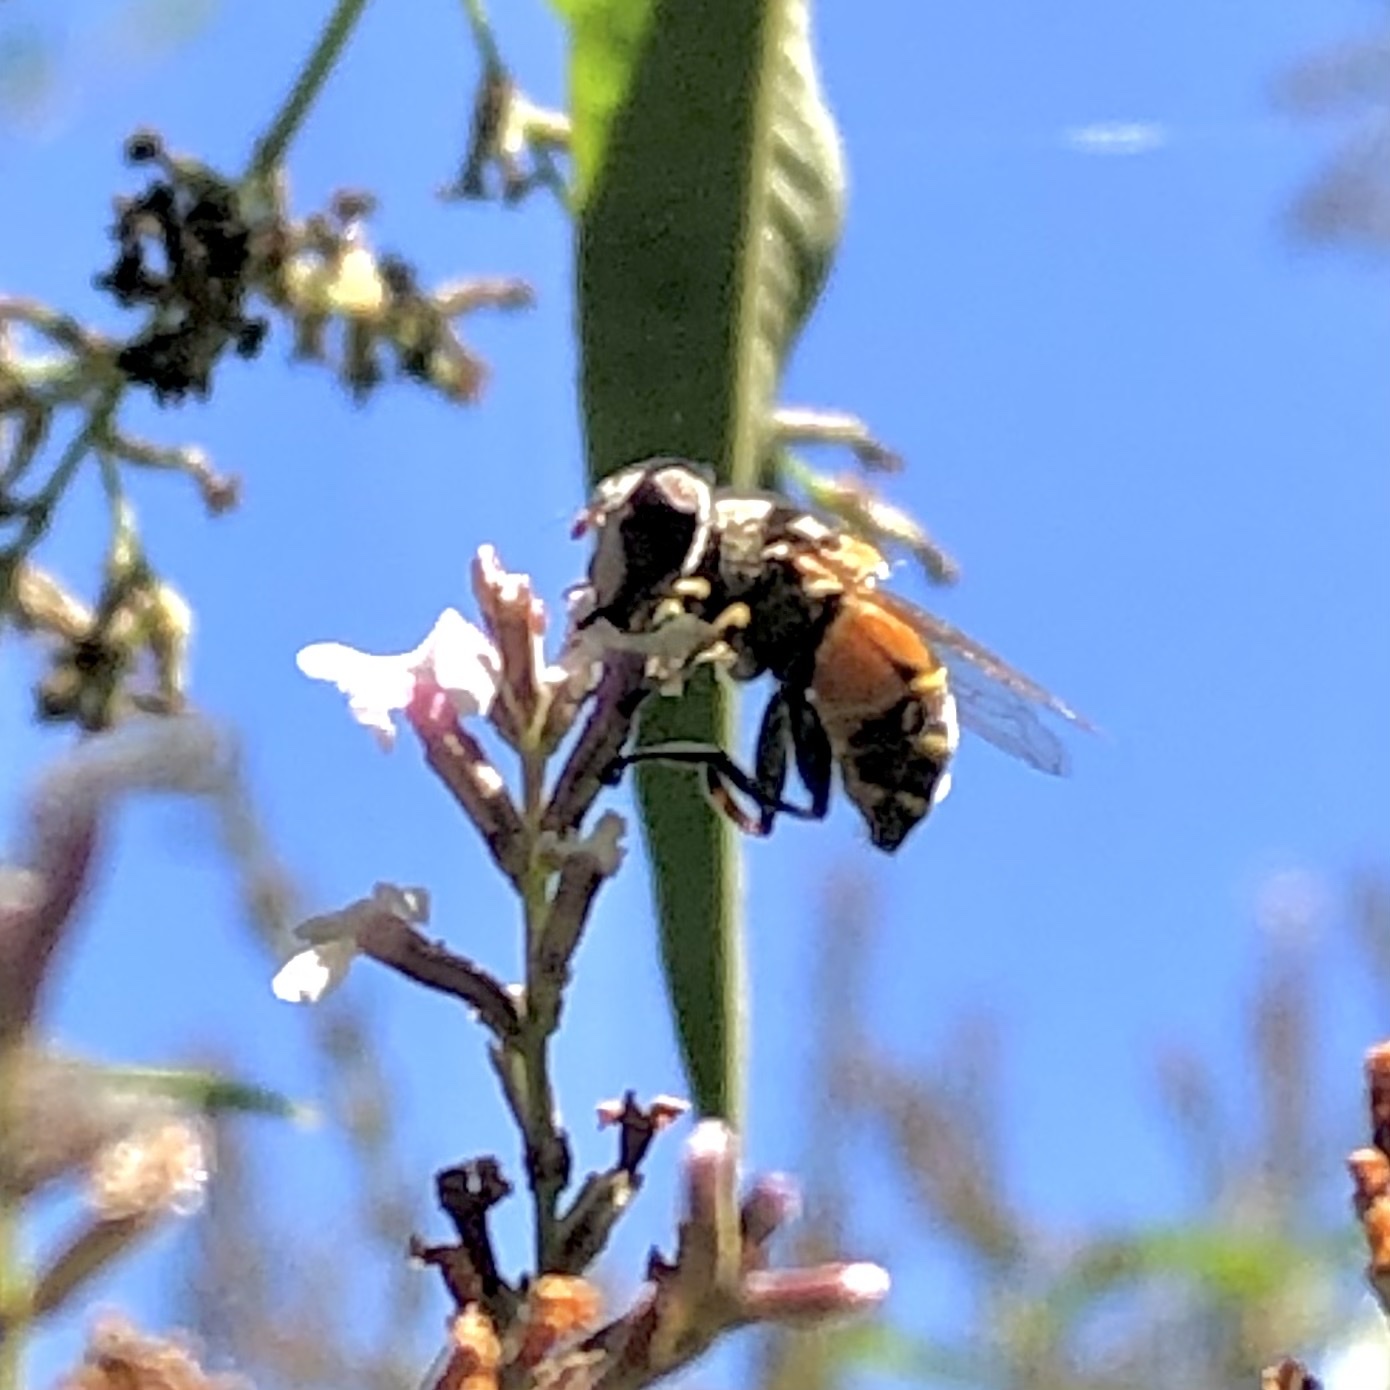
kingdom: Animalia
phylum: Arthropoda
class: Insecta
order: Diptera
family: Syrphidae
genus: Palpada
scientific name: Palpada alhambra
